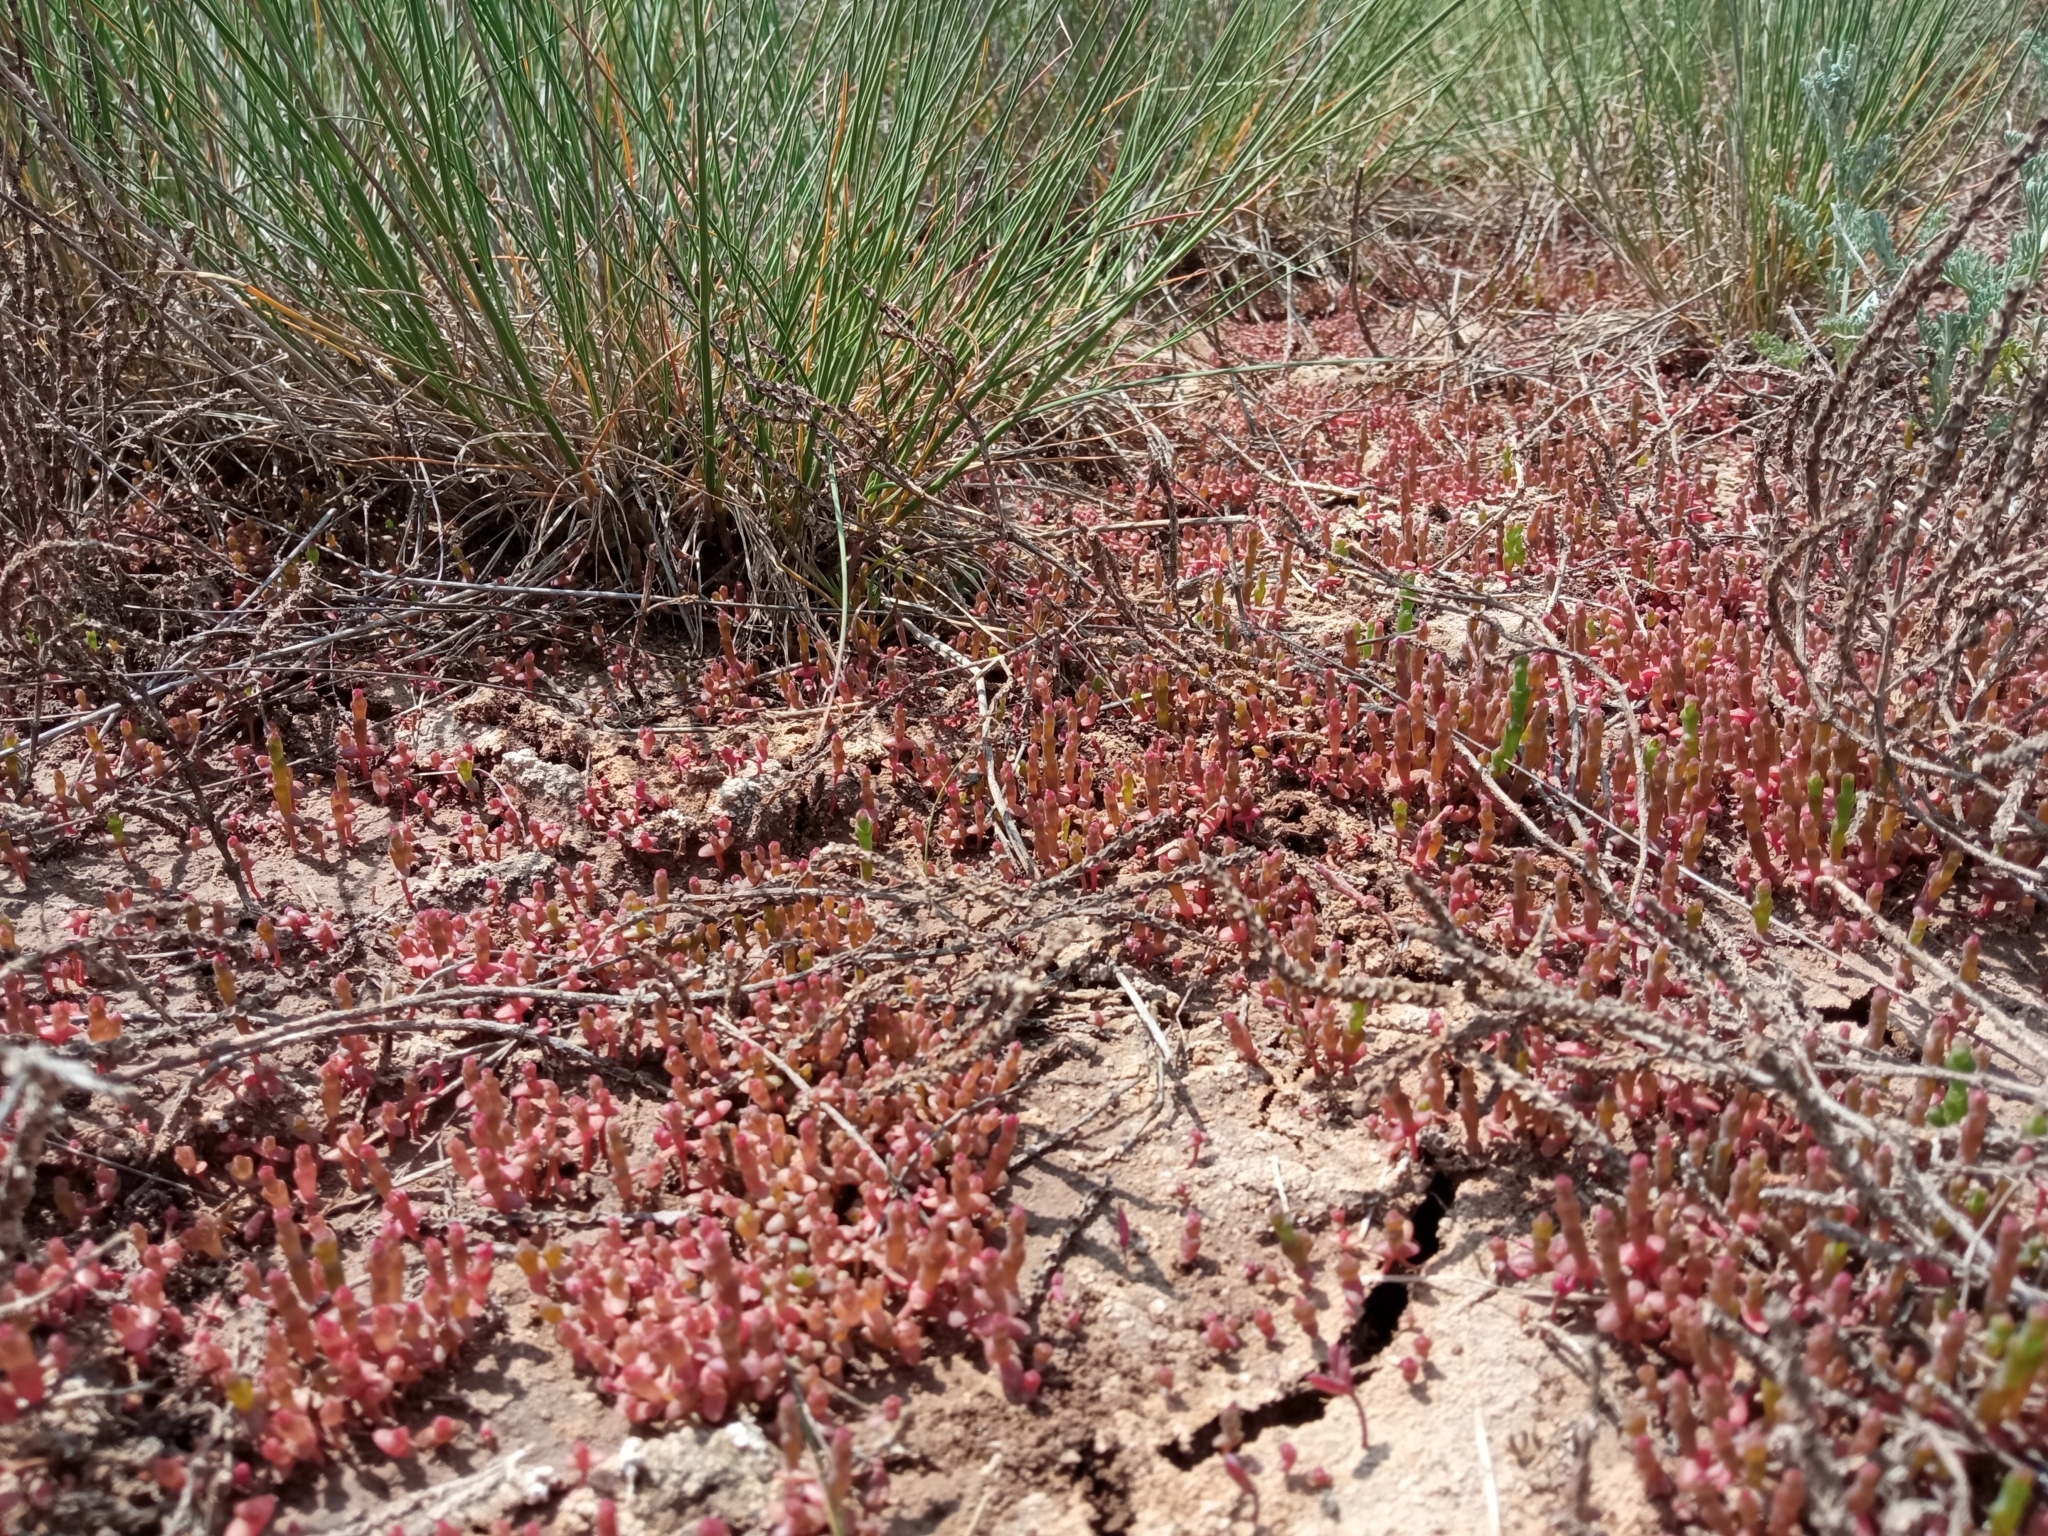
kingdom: Plantae
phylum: Tracheophyta
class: Magnoliopsida
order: Caryophyllales
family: Amaranthaceae
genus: Salicornia
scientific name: Salicornia perennans
